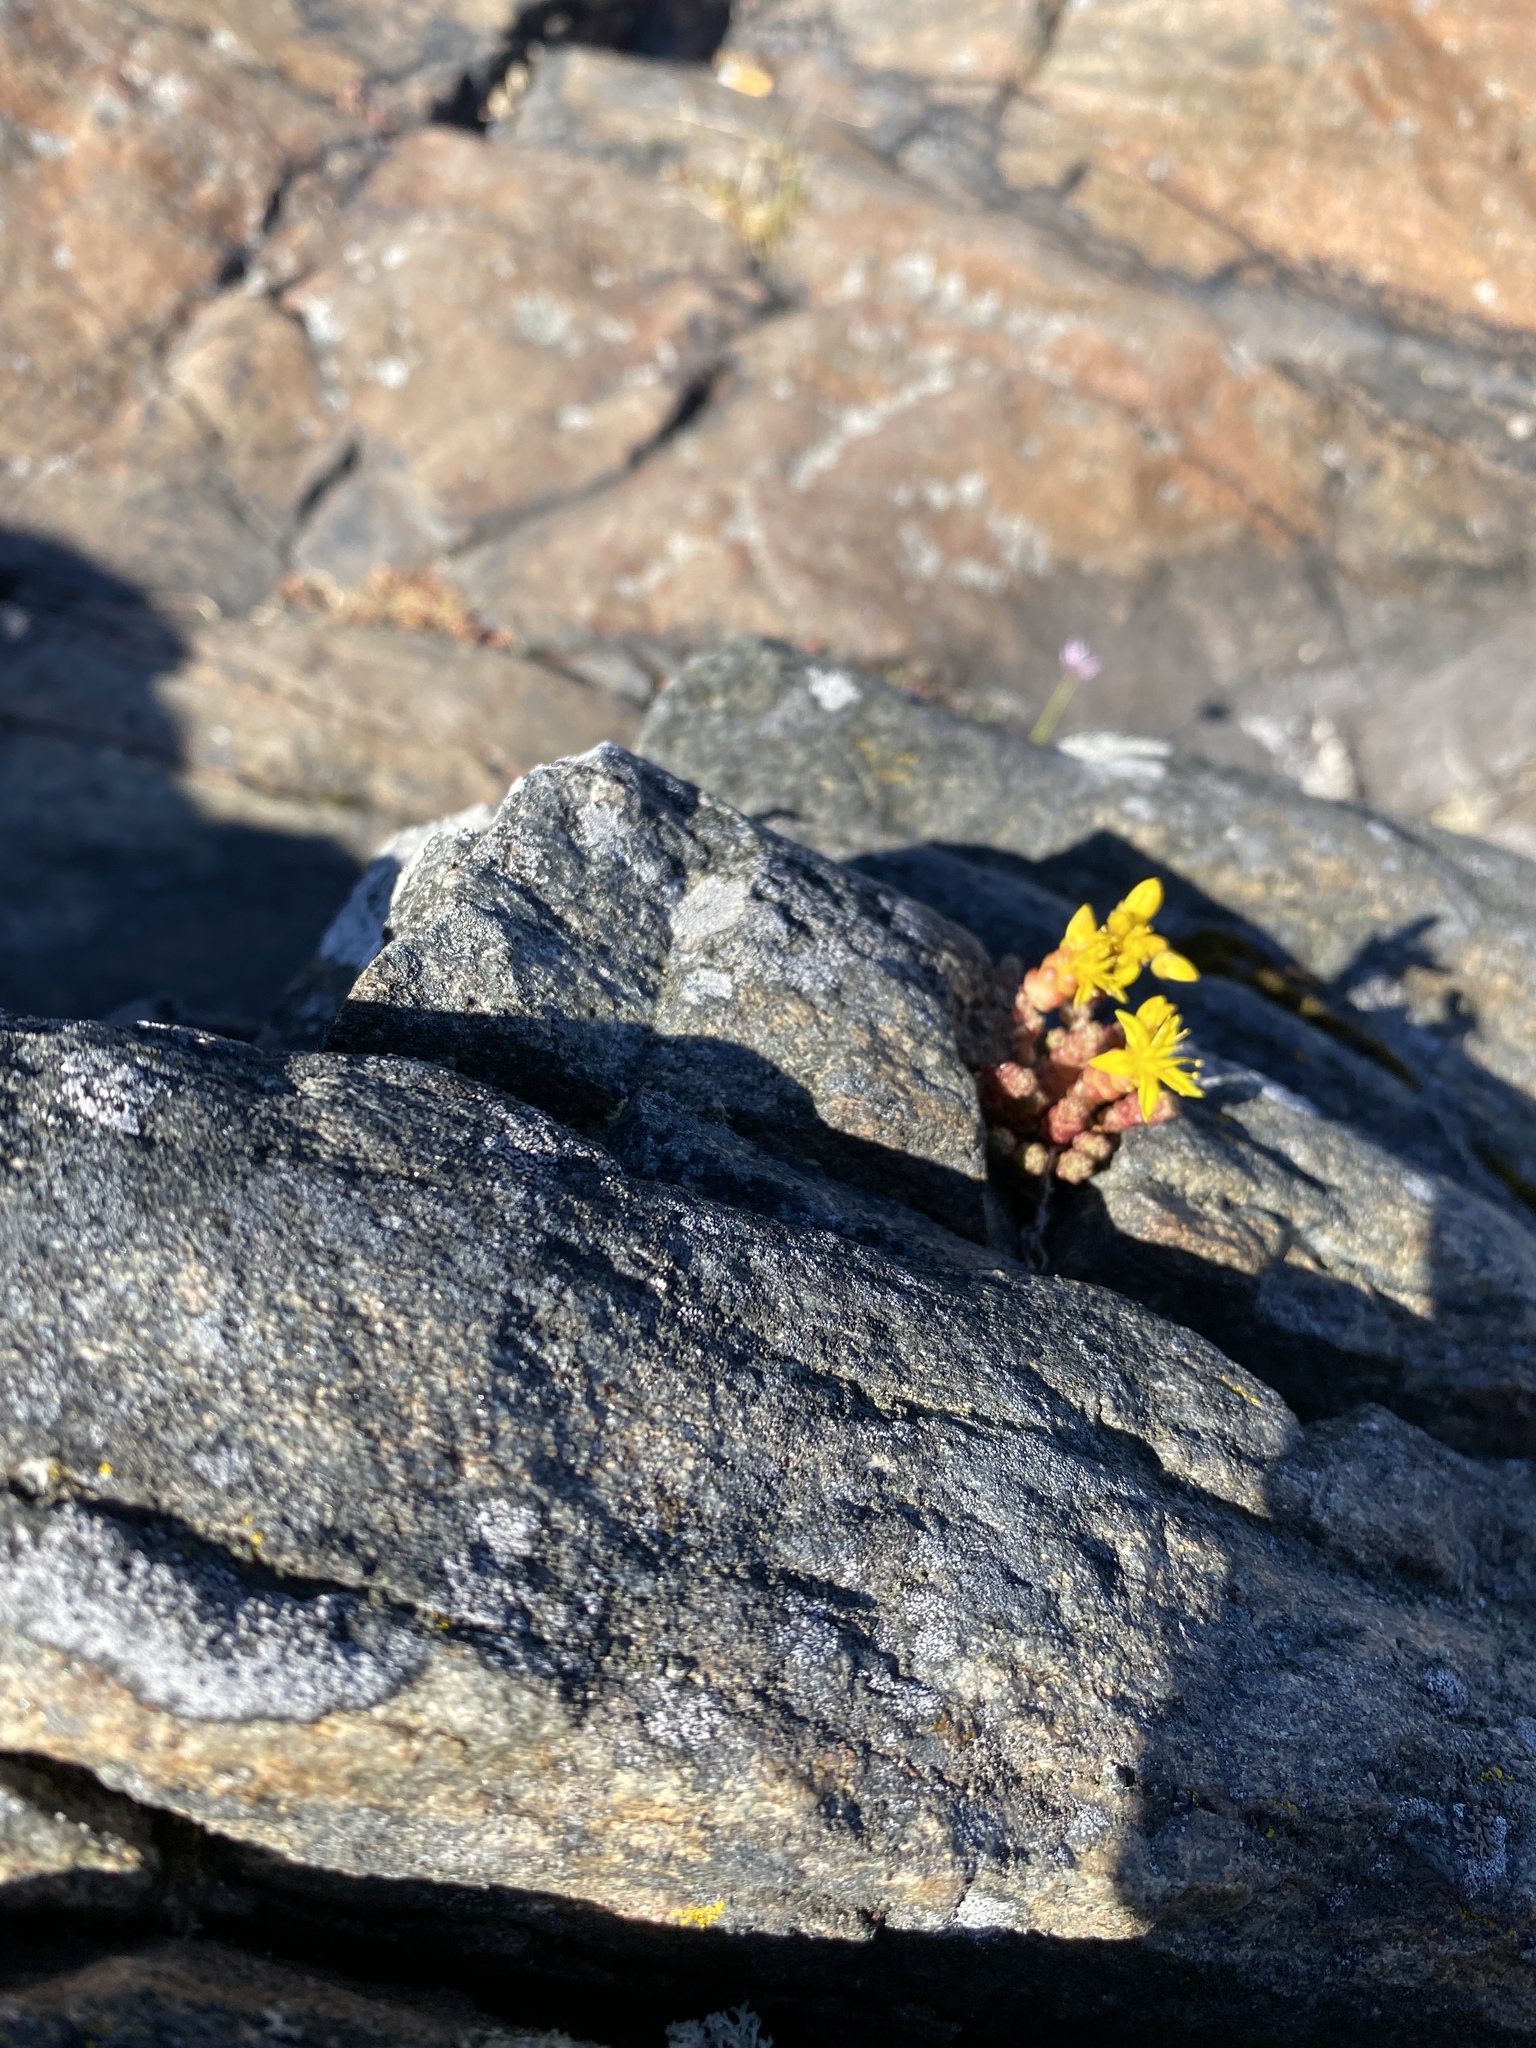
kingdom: Plantae
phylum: Tracheophyta
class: Magnoliopsida
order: Saxifragales
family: Crassulaceae
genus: Sedum
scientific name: Sedum acre
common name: Biting stonecrop
